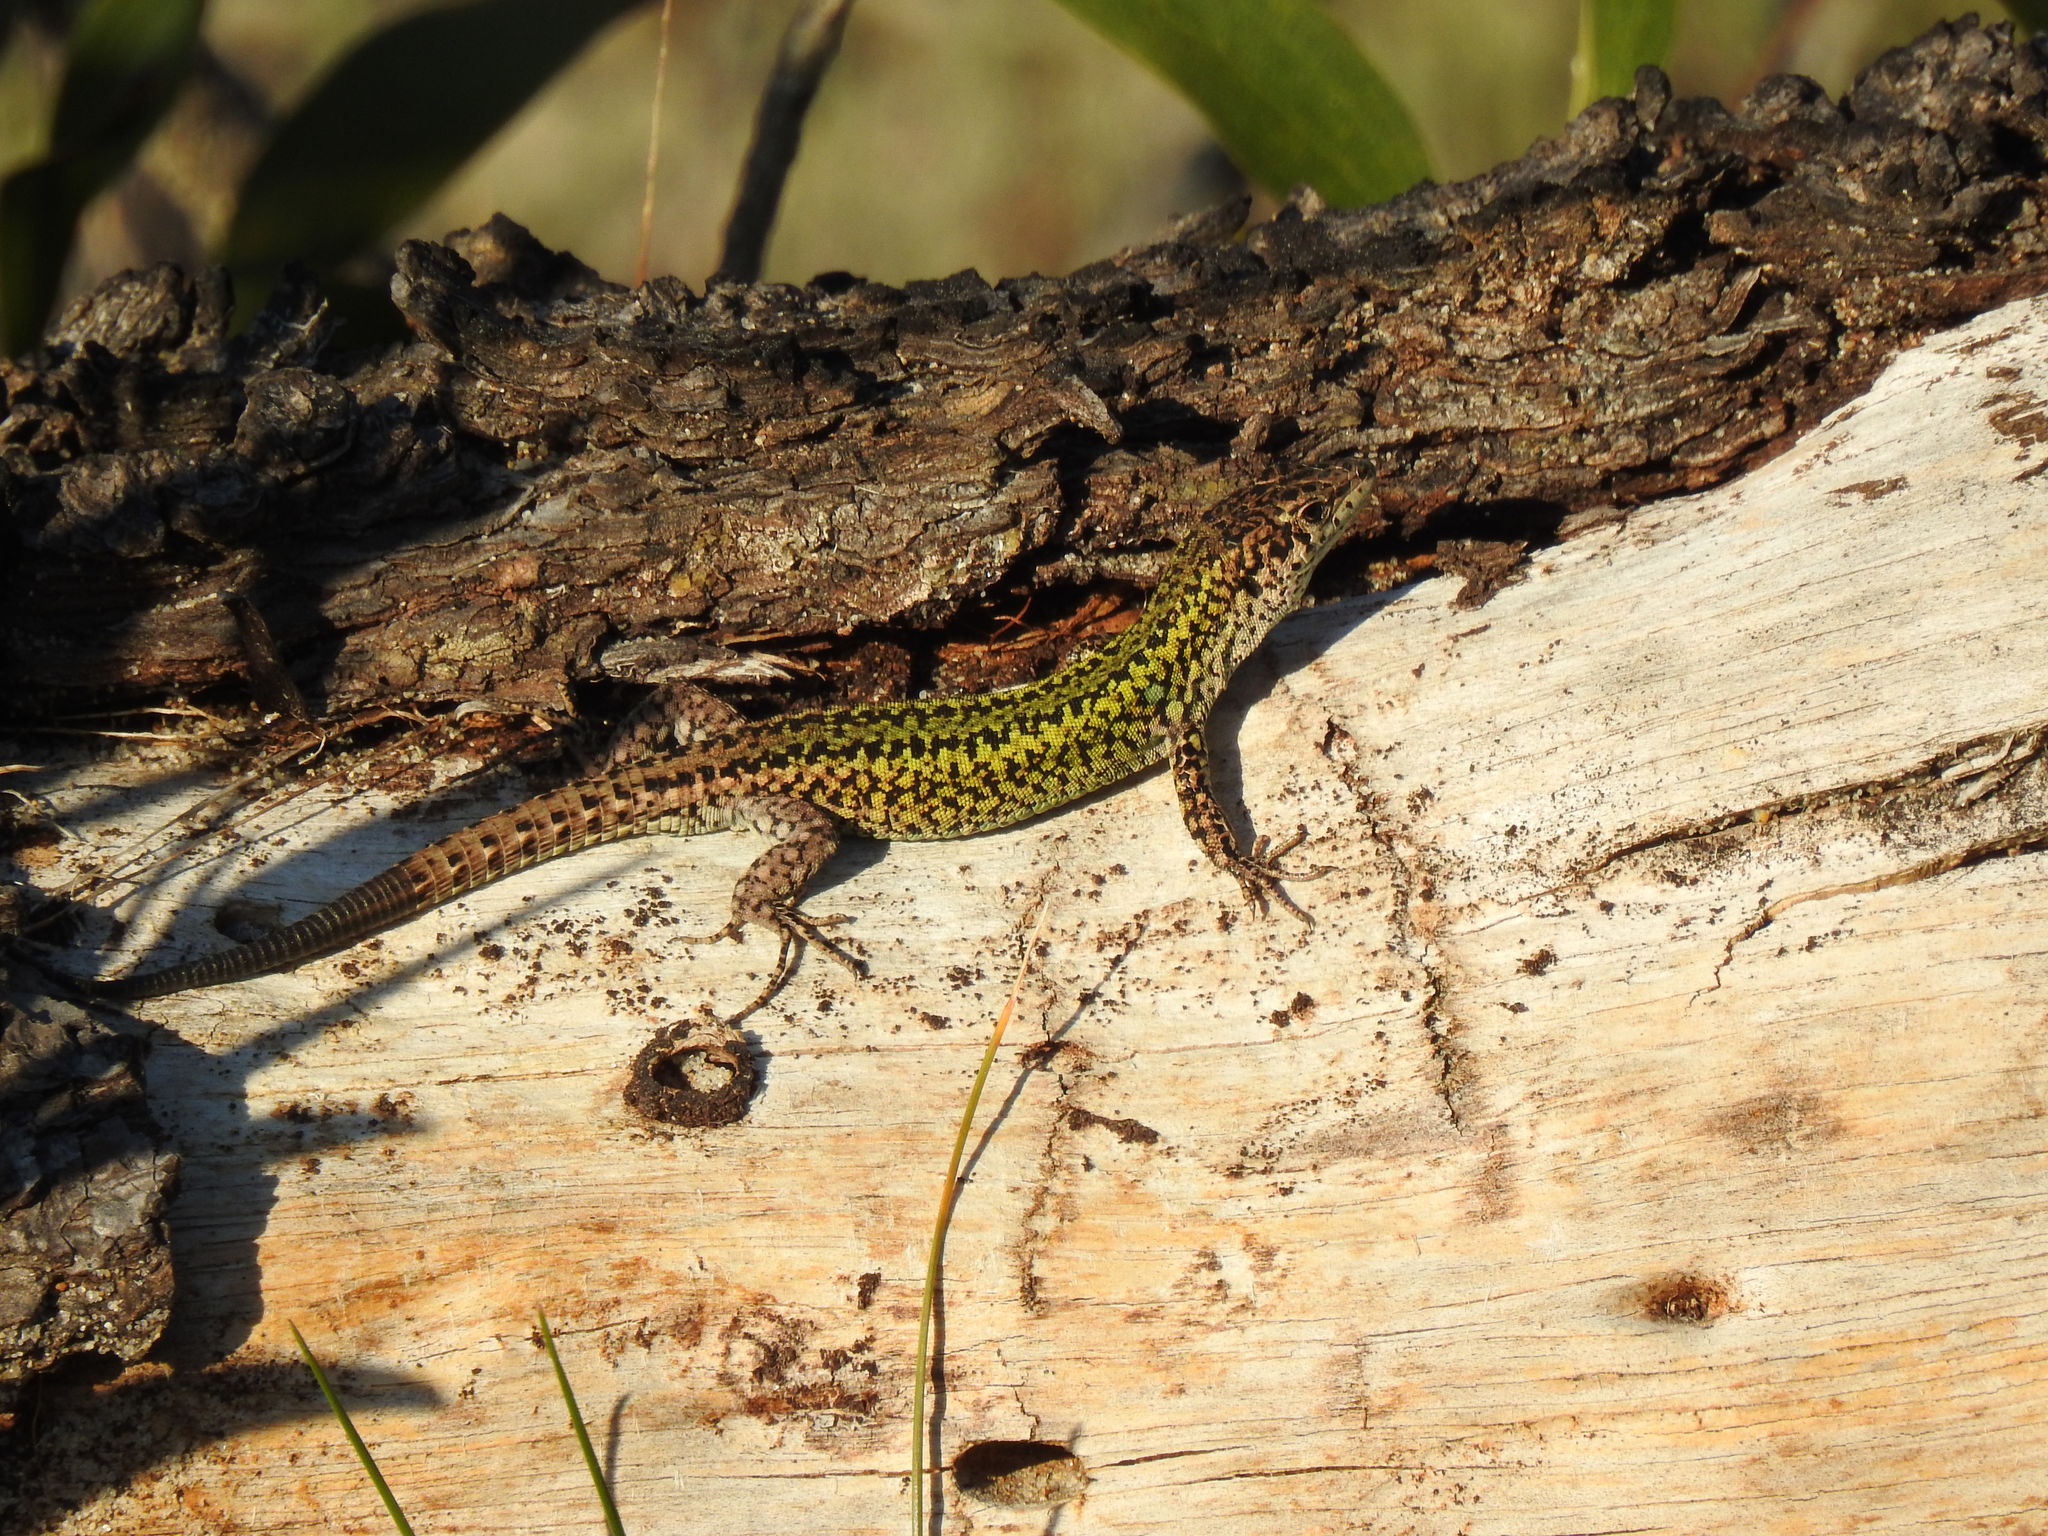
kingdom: Animalia
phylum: Chordata
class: Squamata
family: Lacertidae
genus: Podarcis
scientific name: Podarcis carbonelli
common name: Carbonelli's wall lizard
